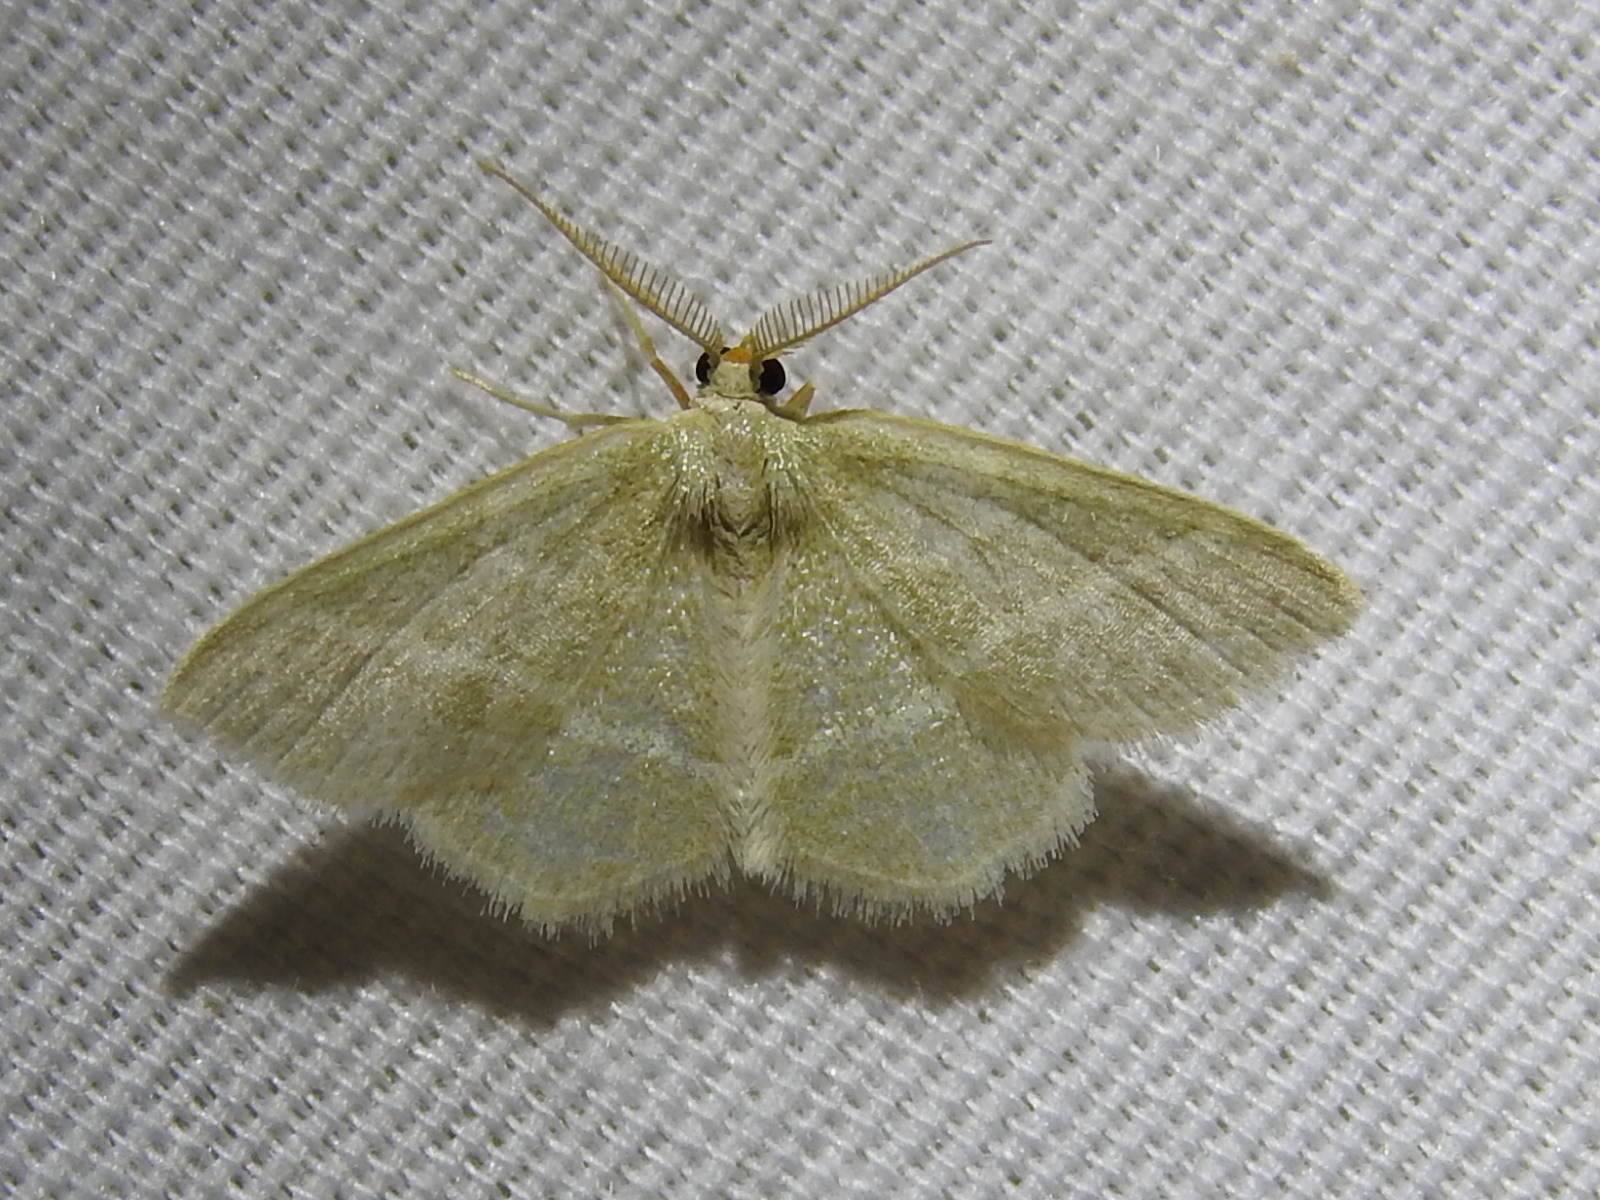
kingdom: Animalia
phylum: Arthropoda
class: Insecta
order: Lepidoptera
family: Geometridae
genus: Chlorochlamys
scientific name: Chlorochlamys chloroleucaria
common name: Blackberry looper
